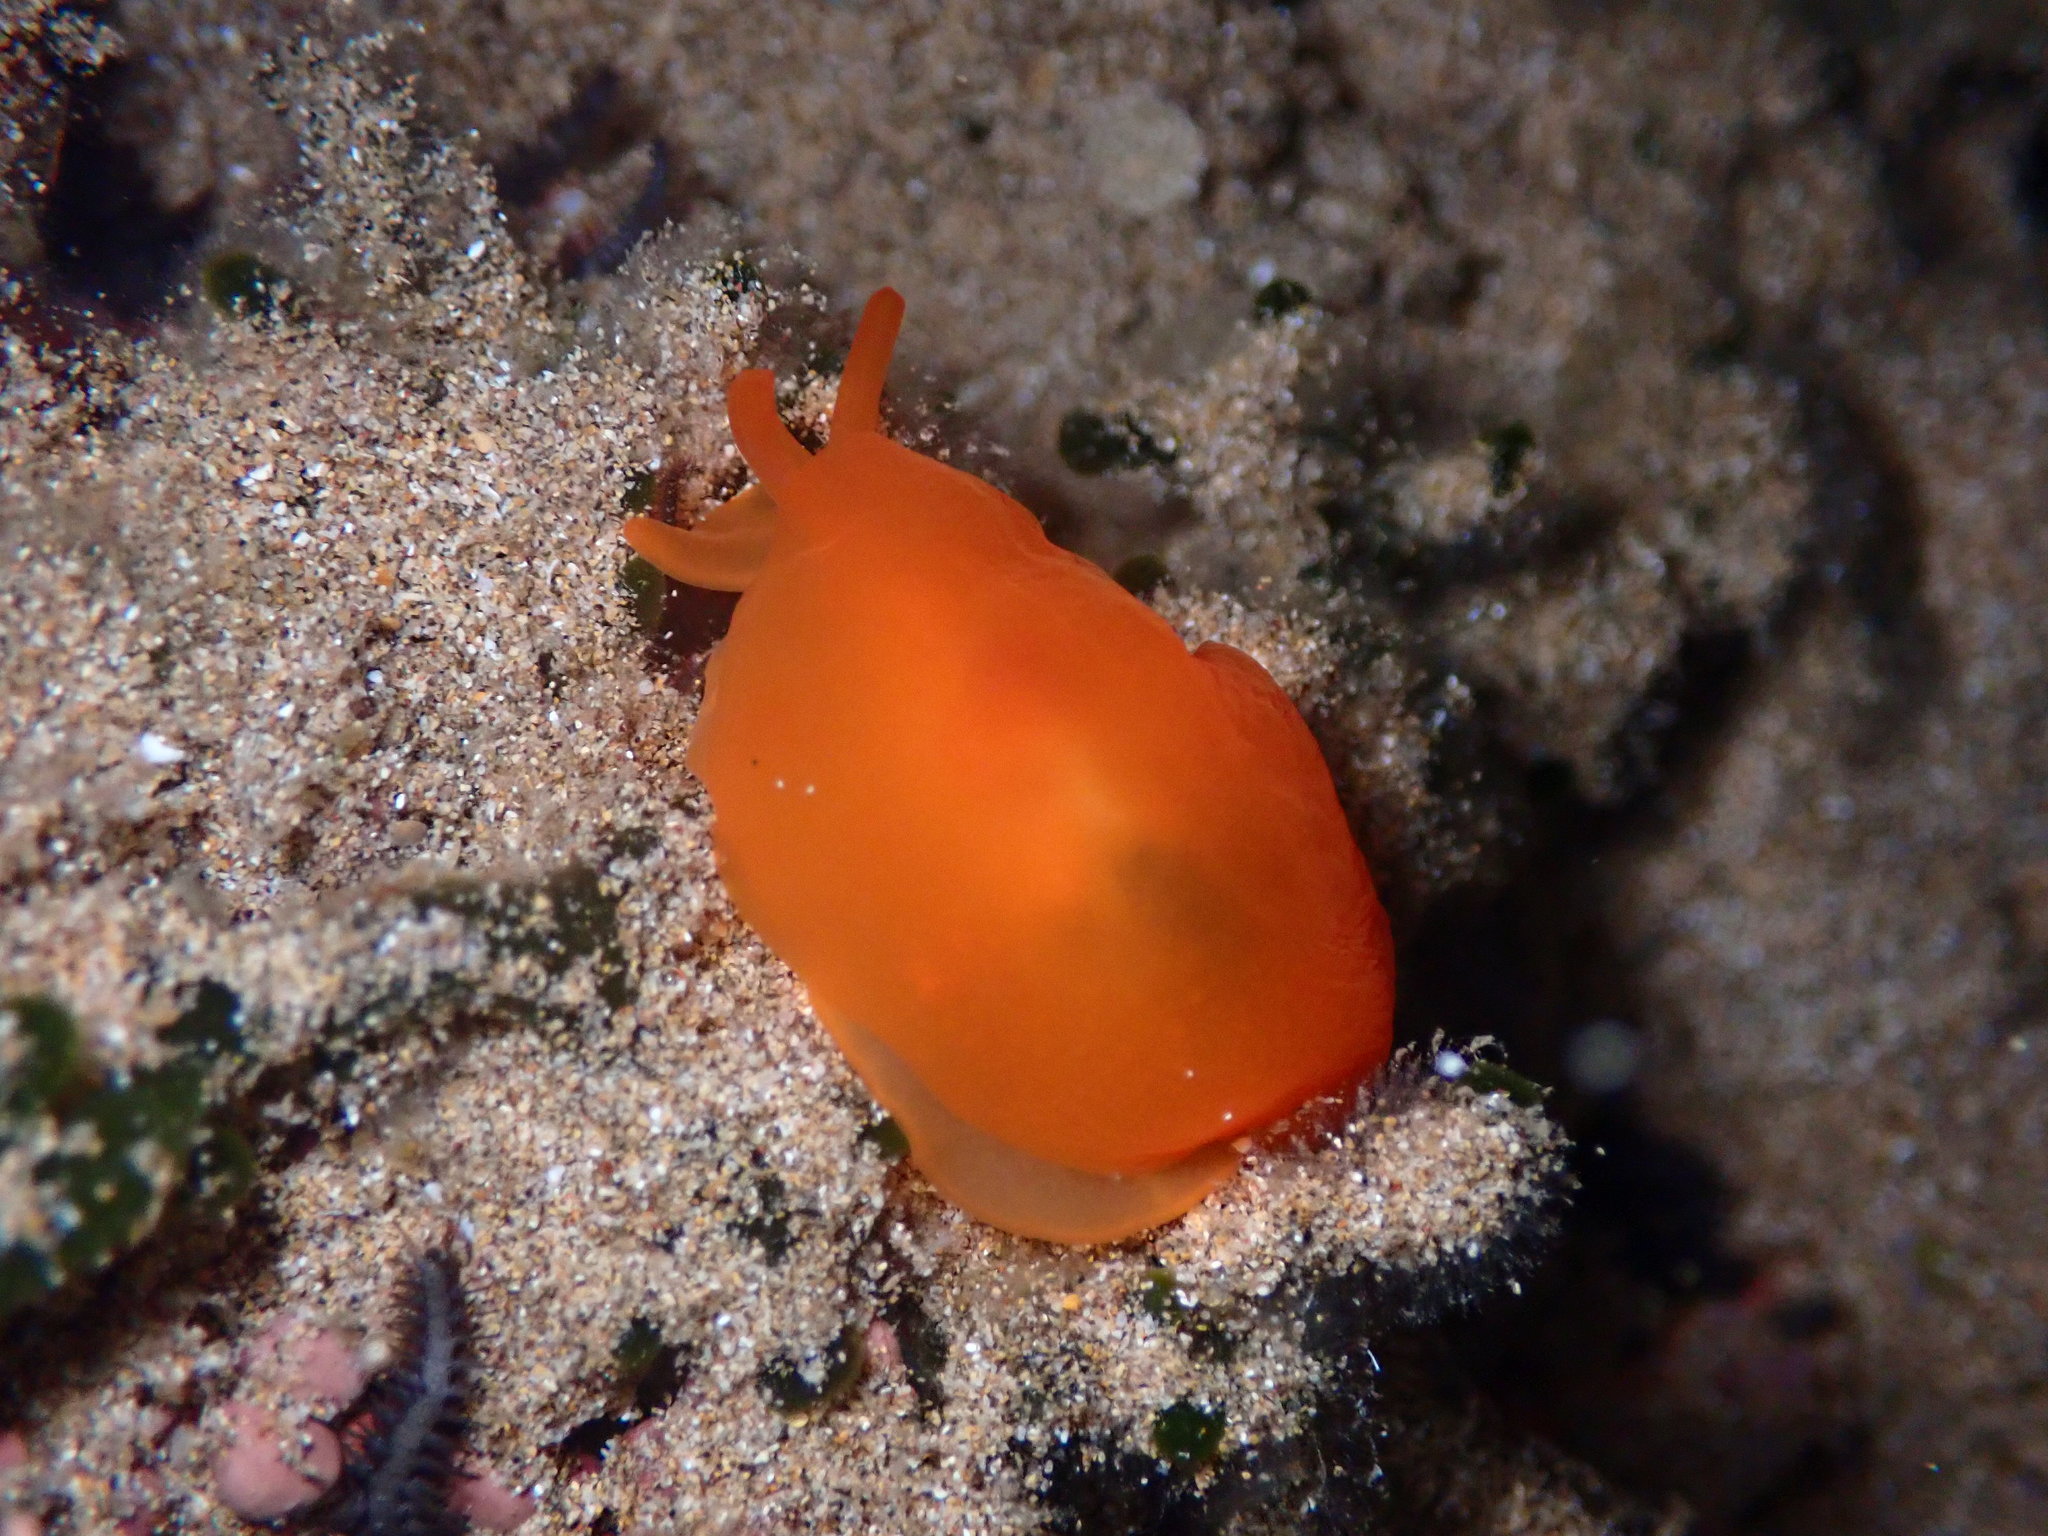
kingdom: Animalia
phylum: Mollusca
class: Gastropoda
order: Pleurobranchida
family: Pleurobranchidae
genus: Berthellina
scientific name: Berthellina delicata
